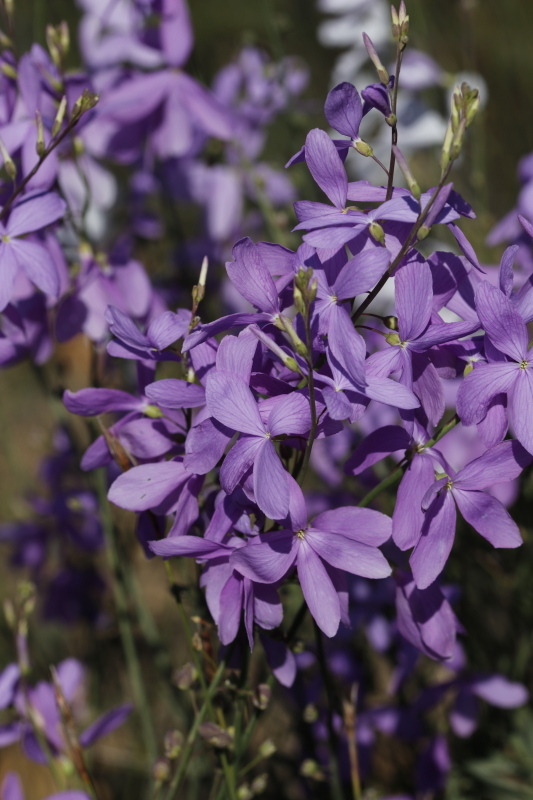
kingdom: Plantae
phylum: Tracheophyta
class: Magnoliopsida
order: Brassicales
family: Brassicaceae
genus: Heliophila
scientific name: Heliophila juncea
